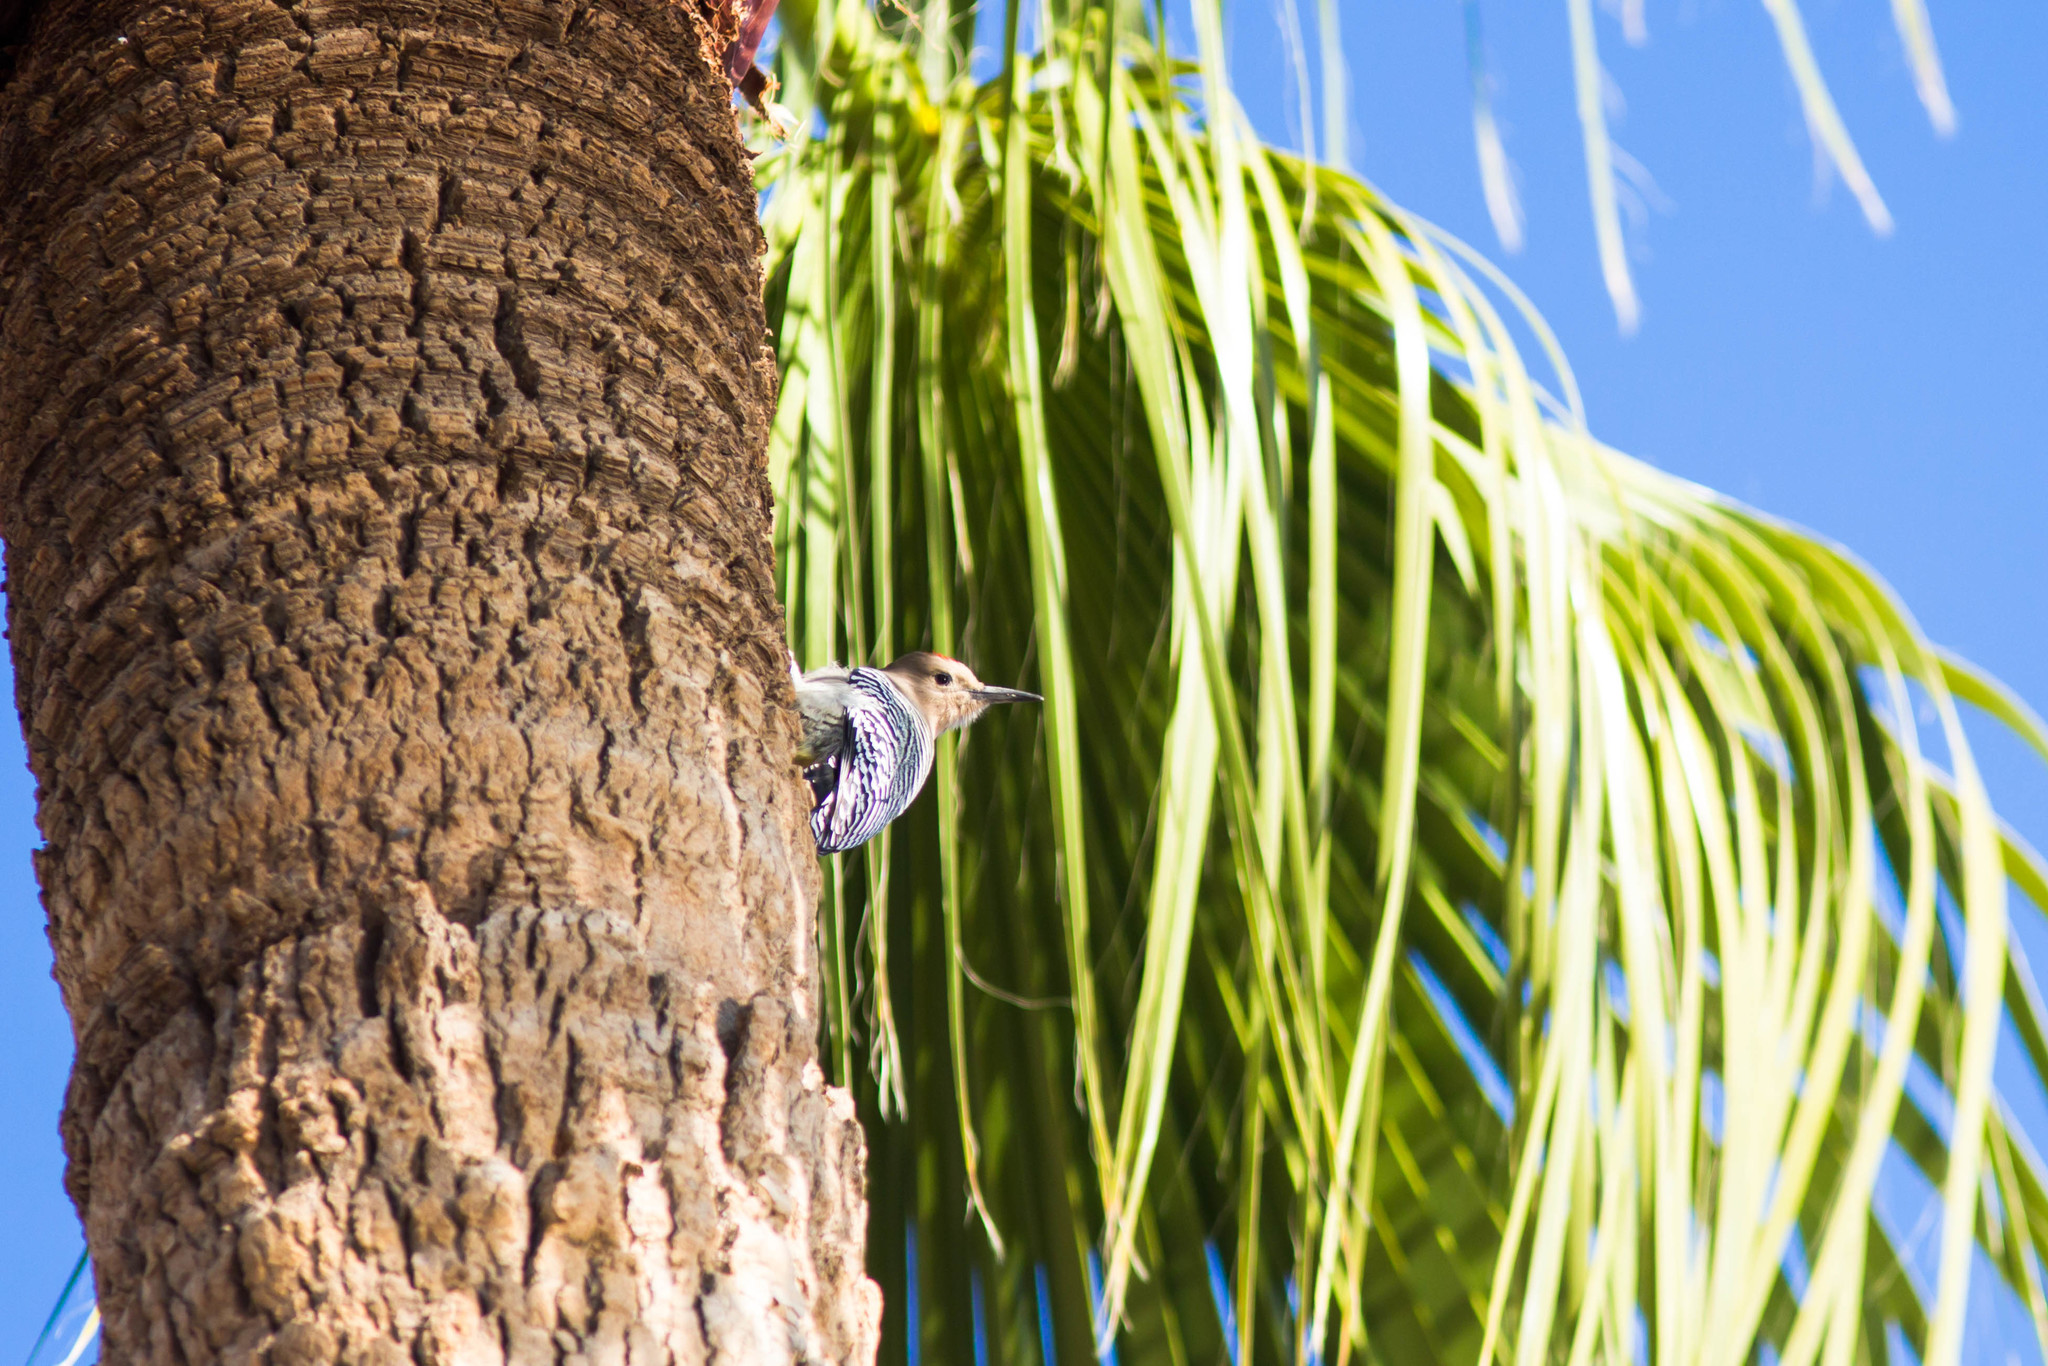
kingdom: Animalia
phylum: Chordata
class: Aves
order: Piciformes
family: Picidae
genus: Melanerpes
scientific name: Melanerpes uropygialis
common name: Gila woodpecker
